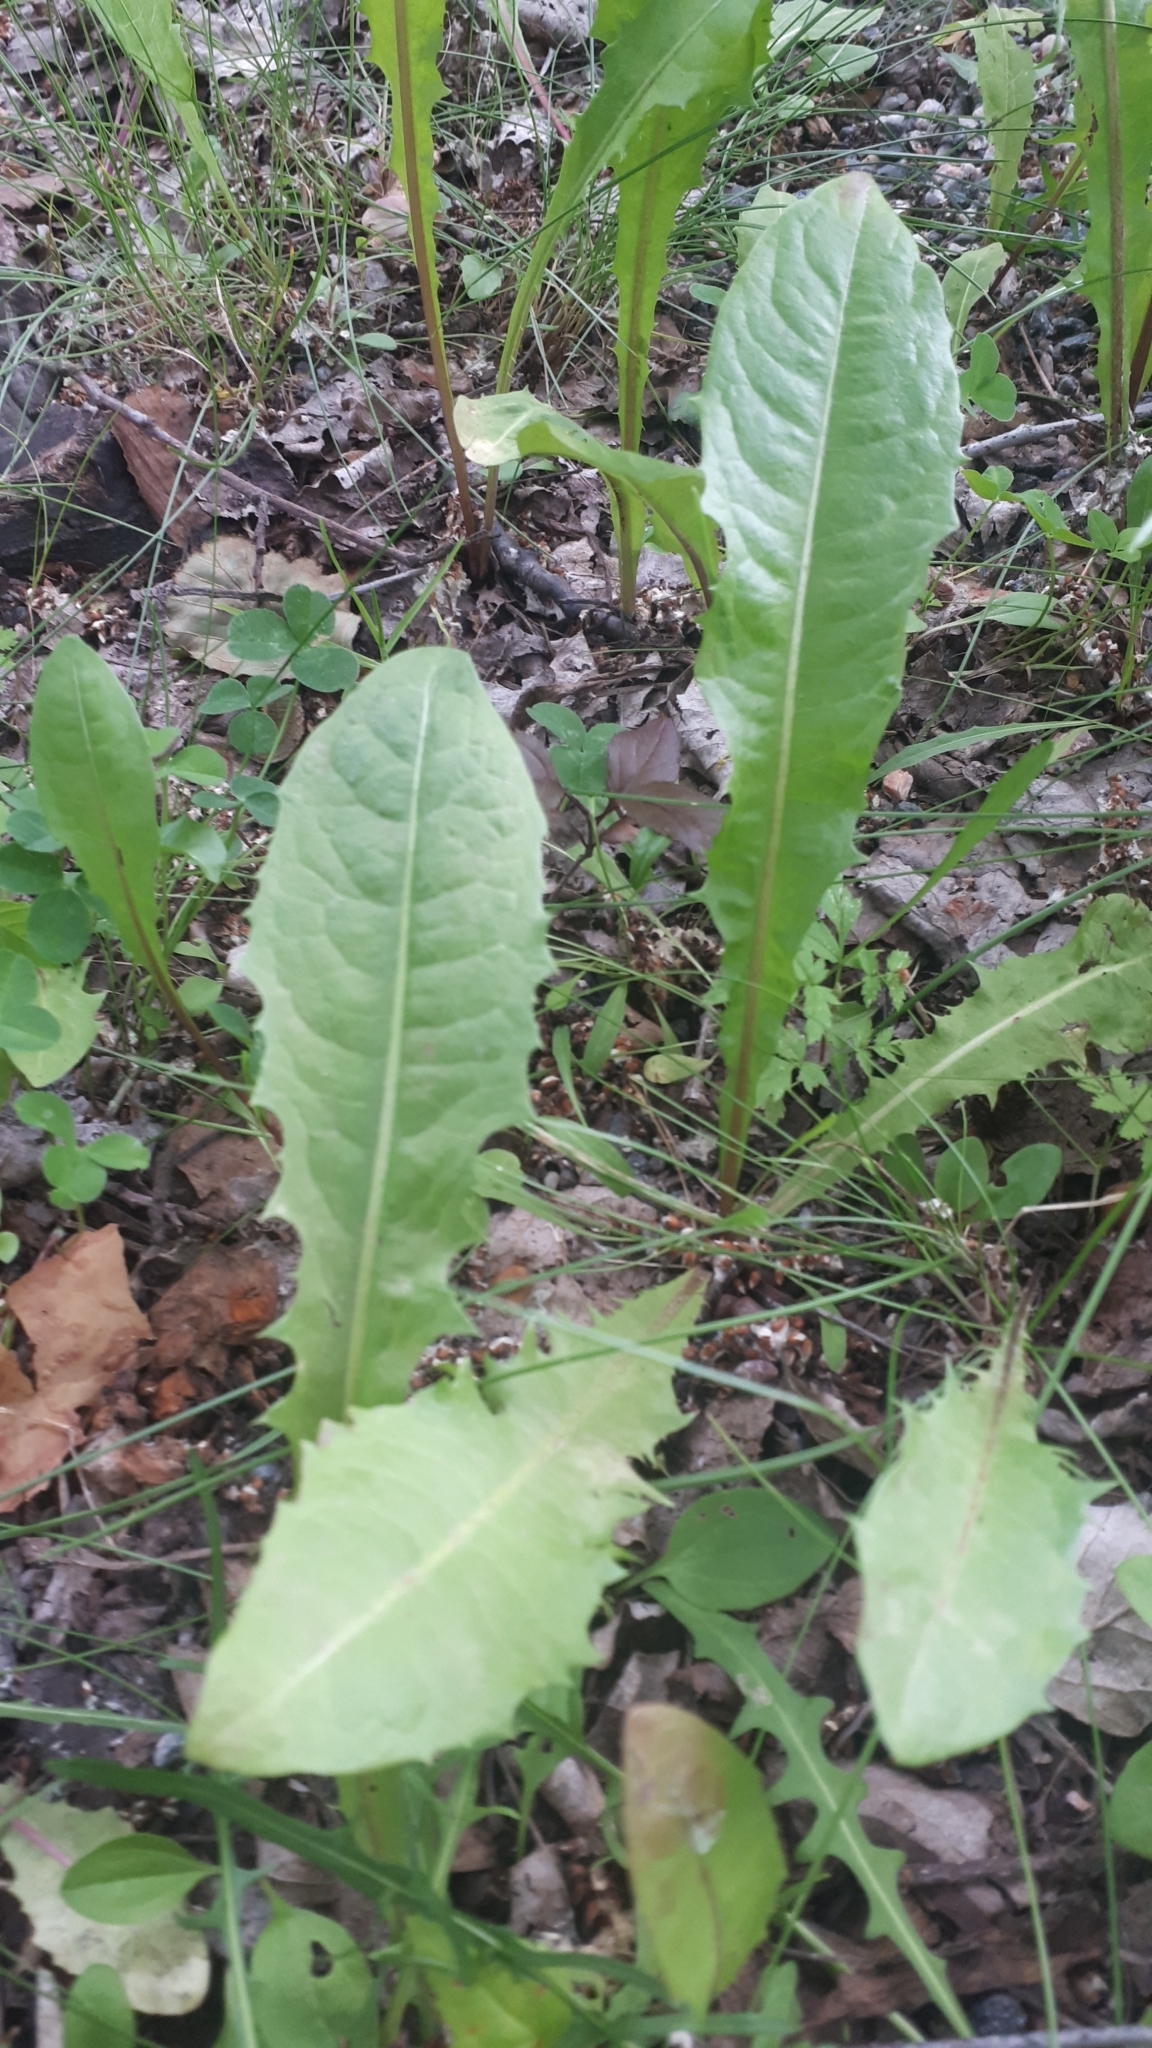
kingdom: Plantae
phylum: Tracheophyta
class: Magnoliopsida
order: Asterales
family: Asteraceae
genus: Taraxacum
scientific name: Taraxacum officinale
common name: Common dandelion
